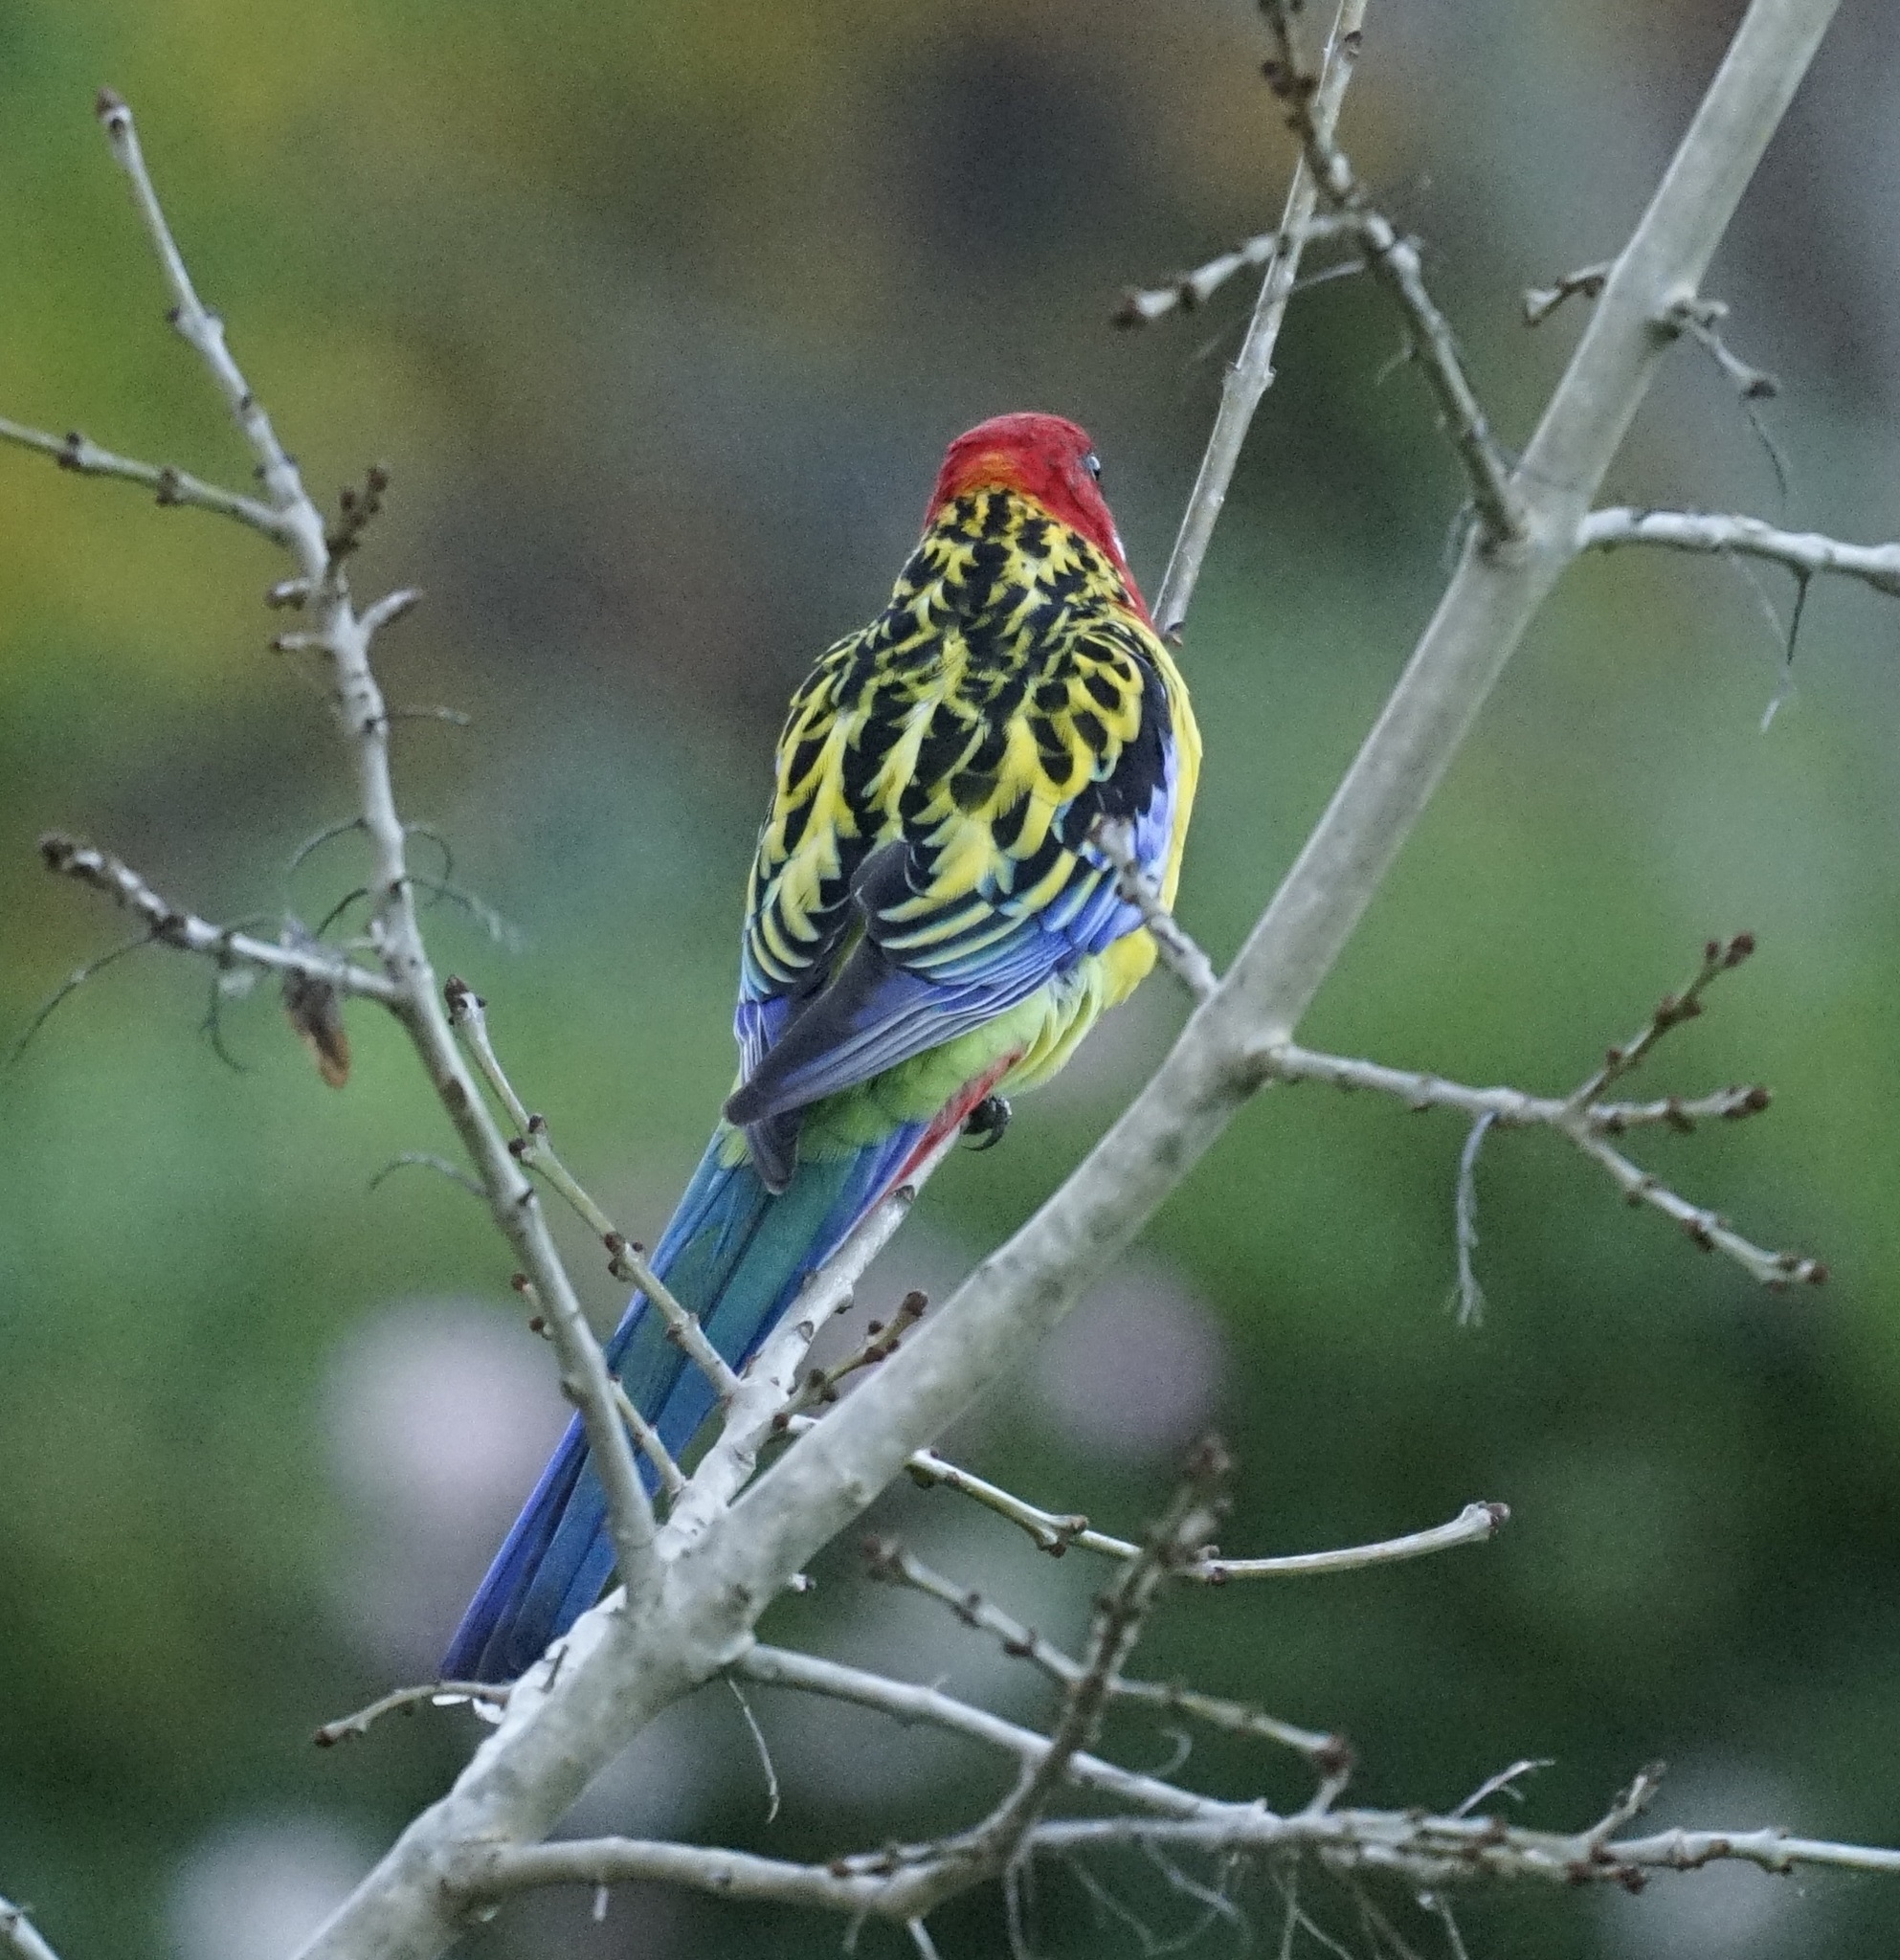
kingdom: Animalia
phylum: Chordata
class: Aves
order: Psittaciformes
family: Psittacidae
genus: Platycercus
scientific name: Platycercus eximius
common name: Eastern rosella
